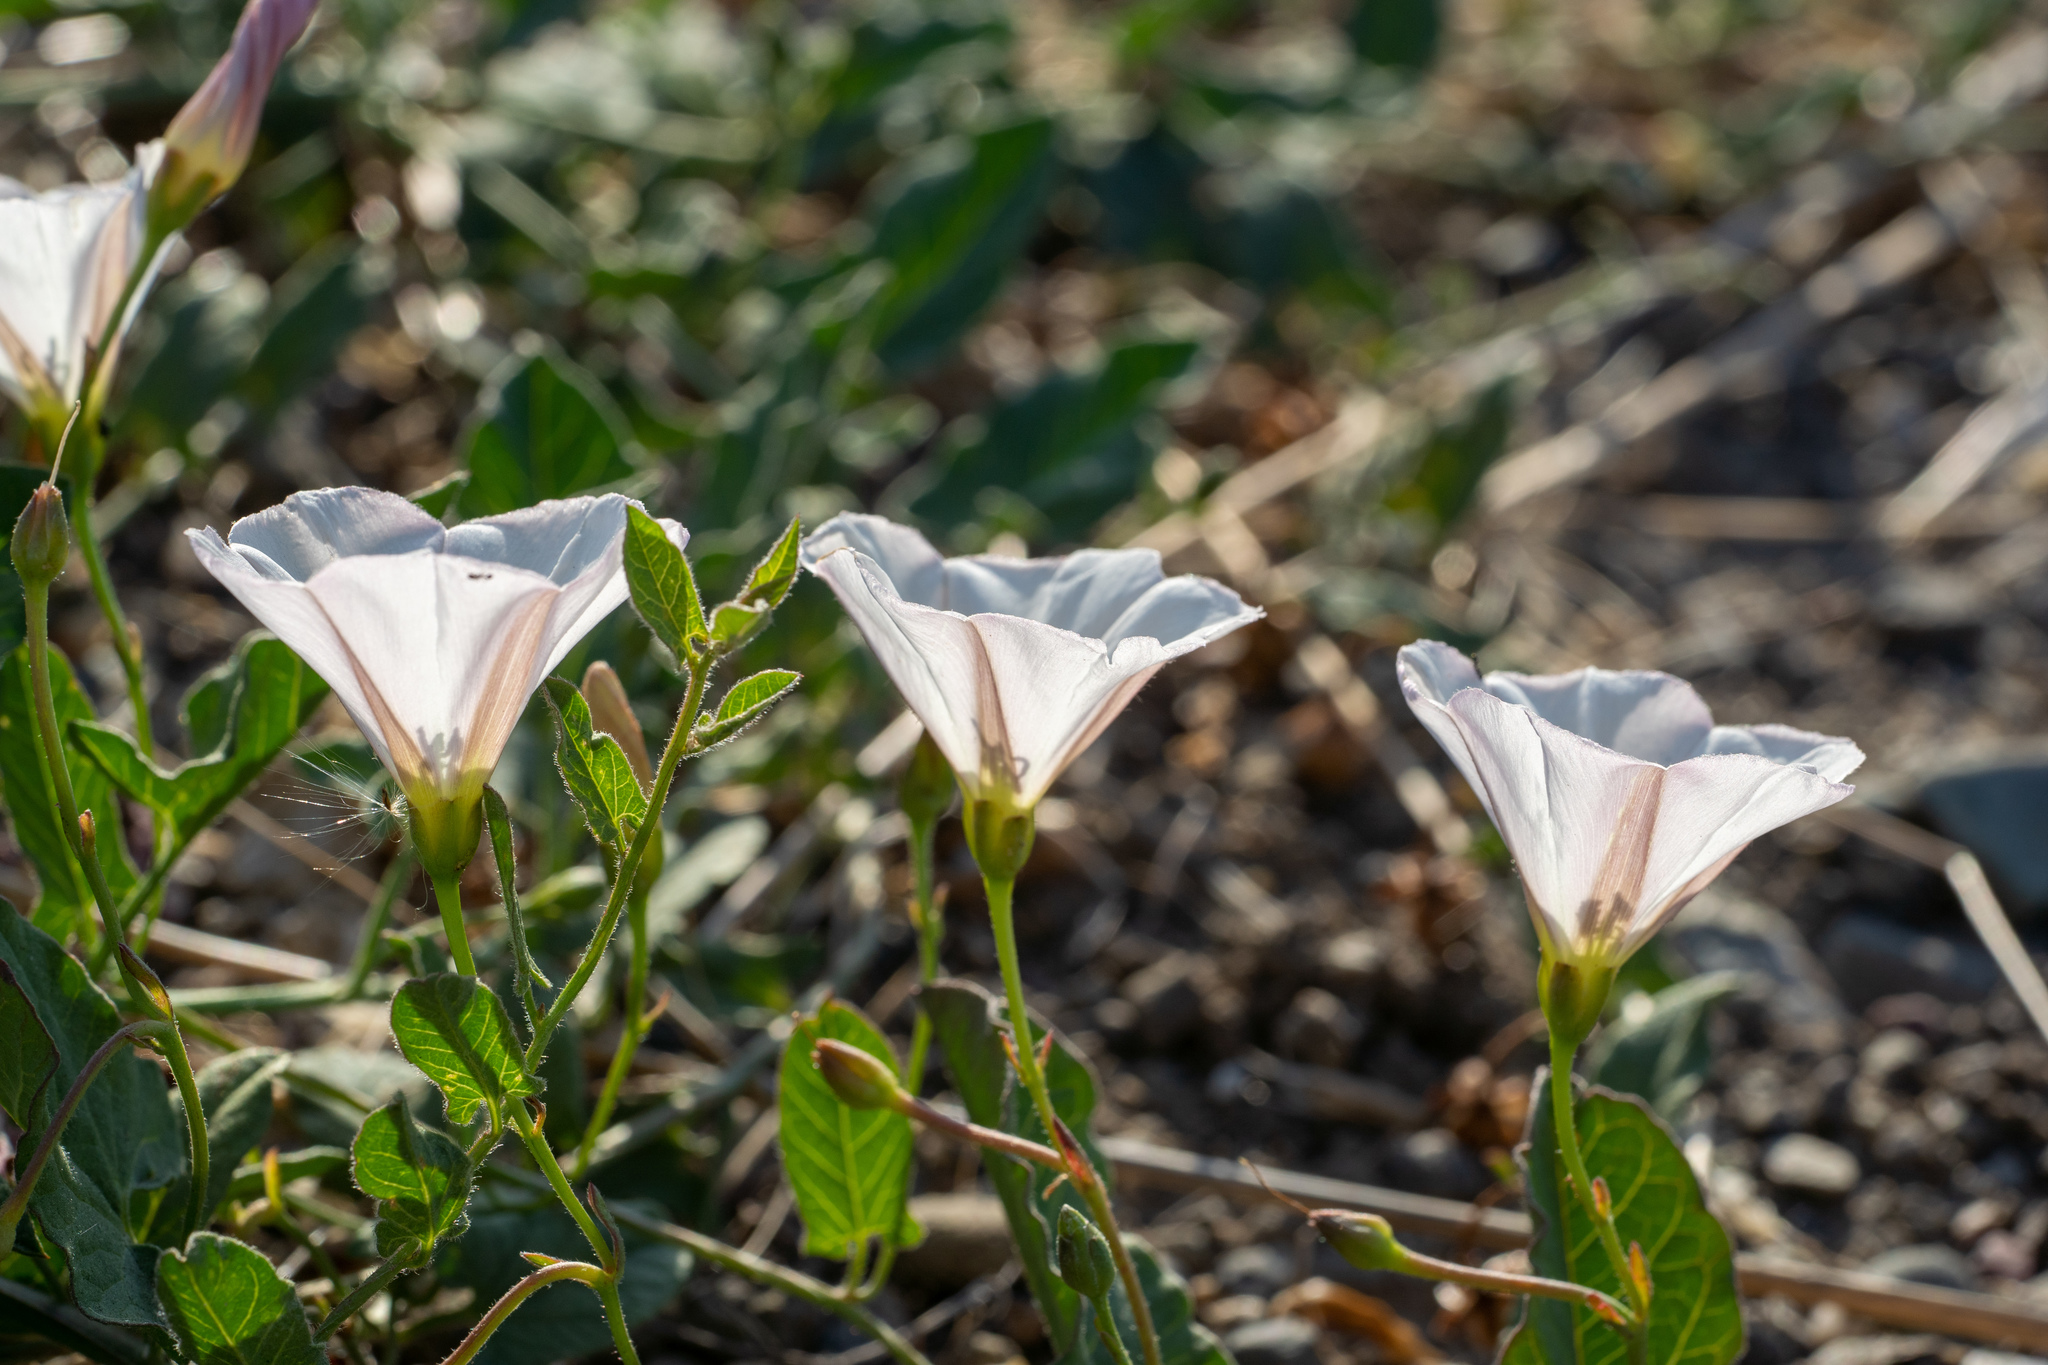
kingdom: Plantae
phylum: Tracheophyta
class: Magnoliopsida
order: Solanales
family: Convolvulaceae
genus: Convolvulus
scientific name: Convolvulus arvensis
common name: Field bindweed
